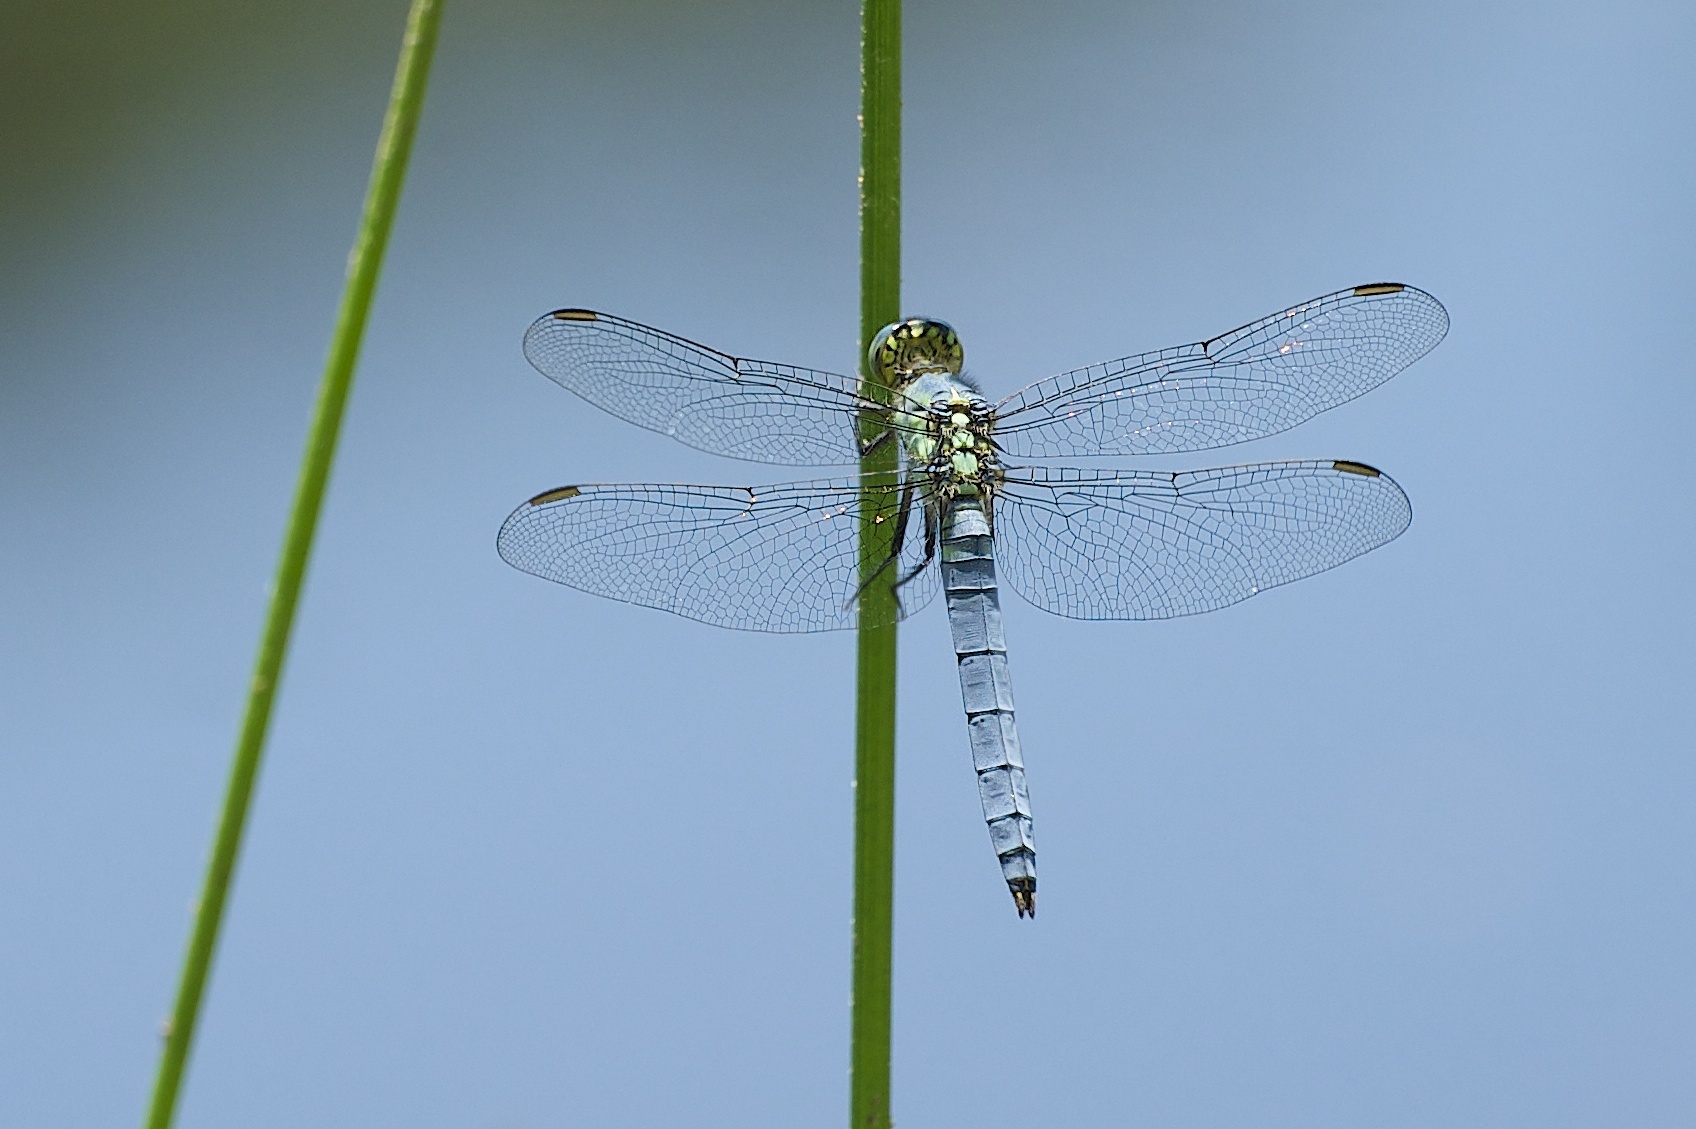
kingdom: Animalia
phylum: Arthropoda
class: Insecta
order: Odonata
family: Libellulidae
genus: Pachydiplax
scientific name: Pachydiplax longipennis
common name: Blue dasher
